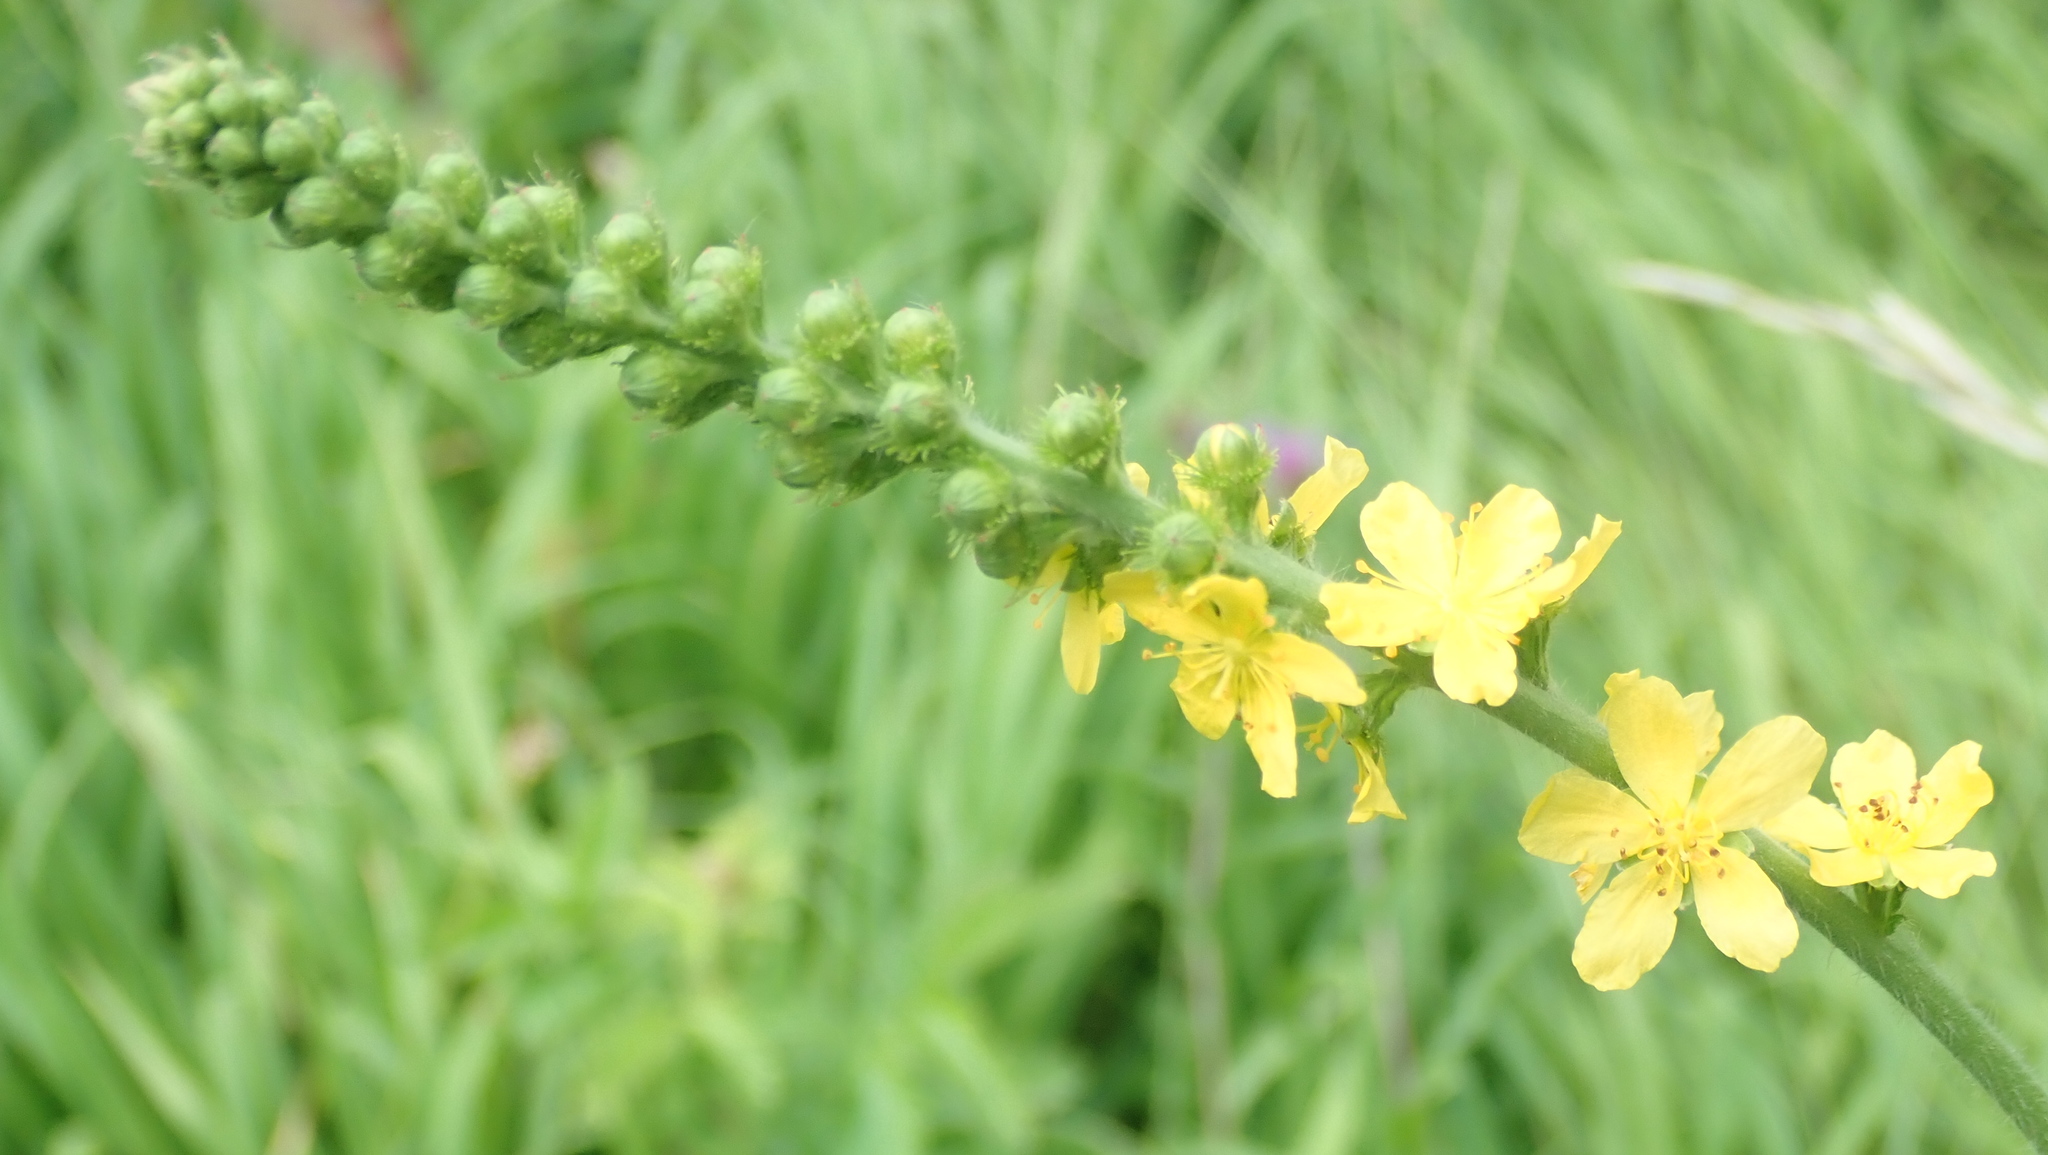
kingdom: Plantae
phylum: Tracheophyta
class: Magnoliopsida
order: Rosales
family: Rosaceae
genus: Agrimonia
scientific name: Agrimonia eupatoria
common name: Agrimony
